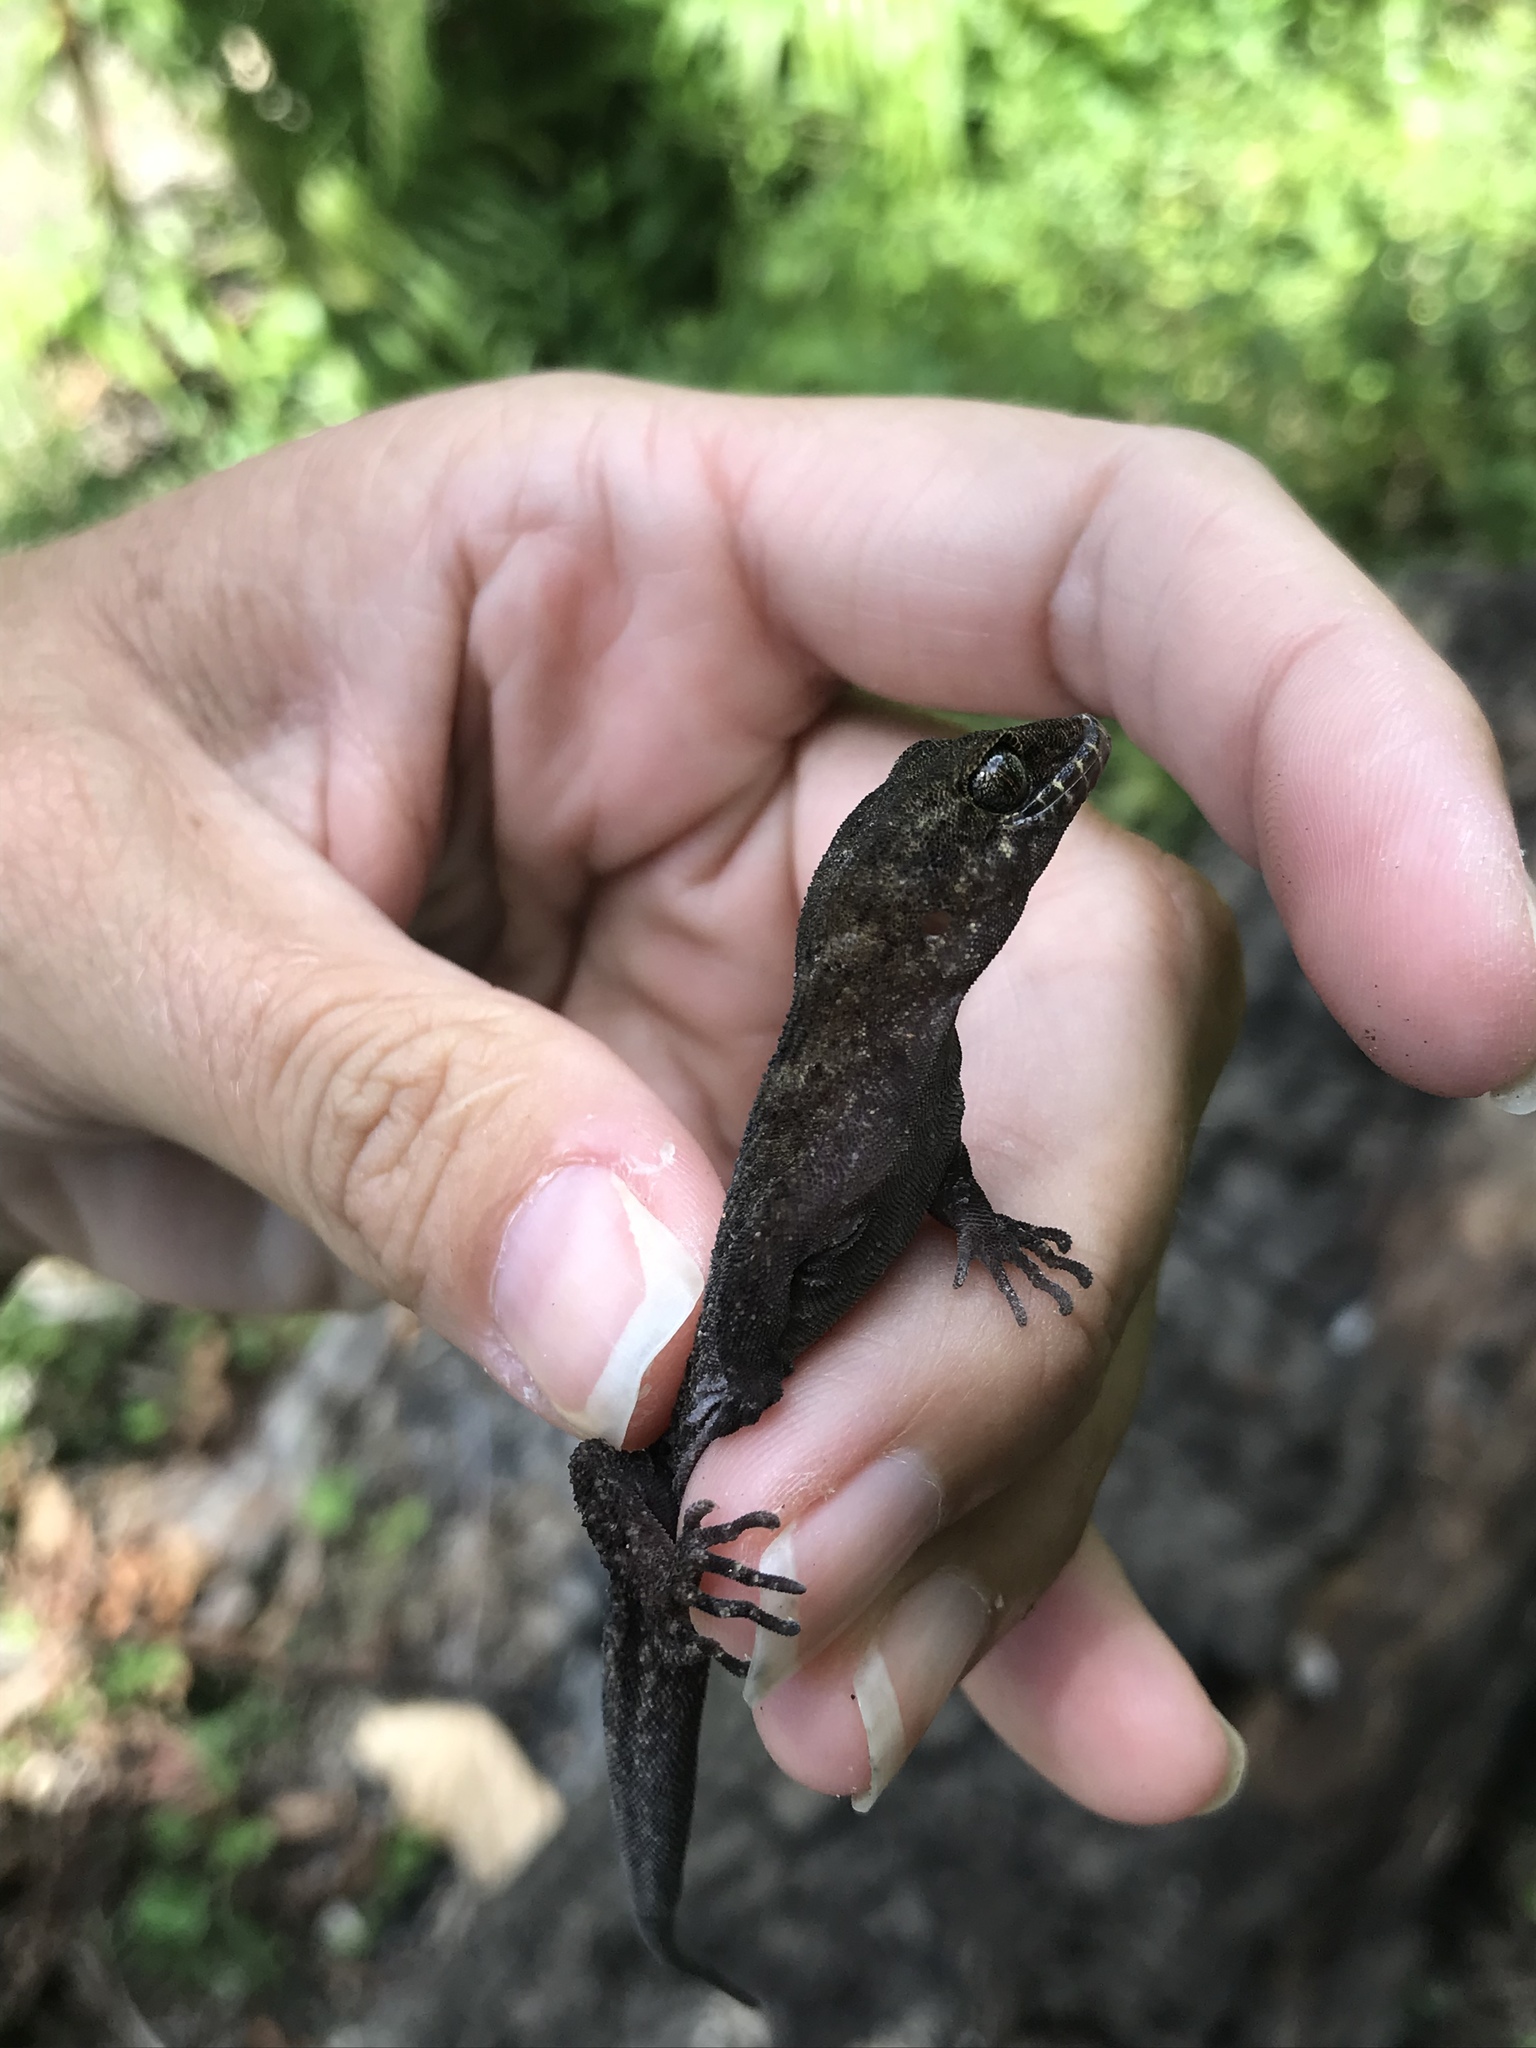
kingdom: Animalia
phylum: Chordata
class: Squamata
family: Gekkonidae
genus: Nactus
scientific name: Nactus multicarinatus
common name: Solomons slender-toed gecko
